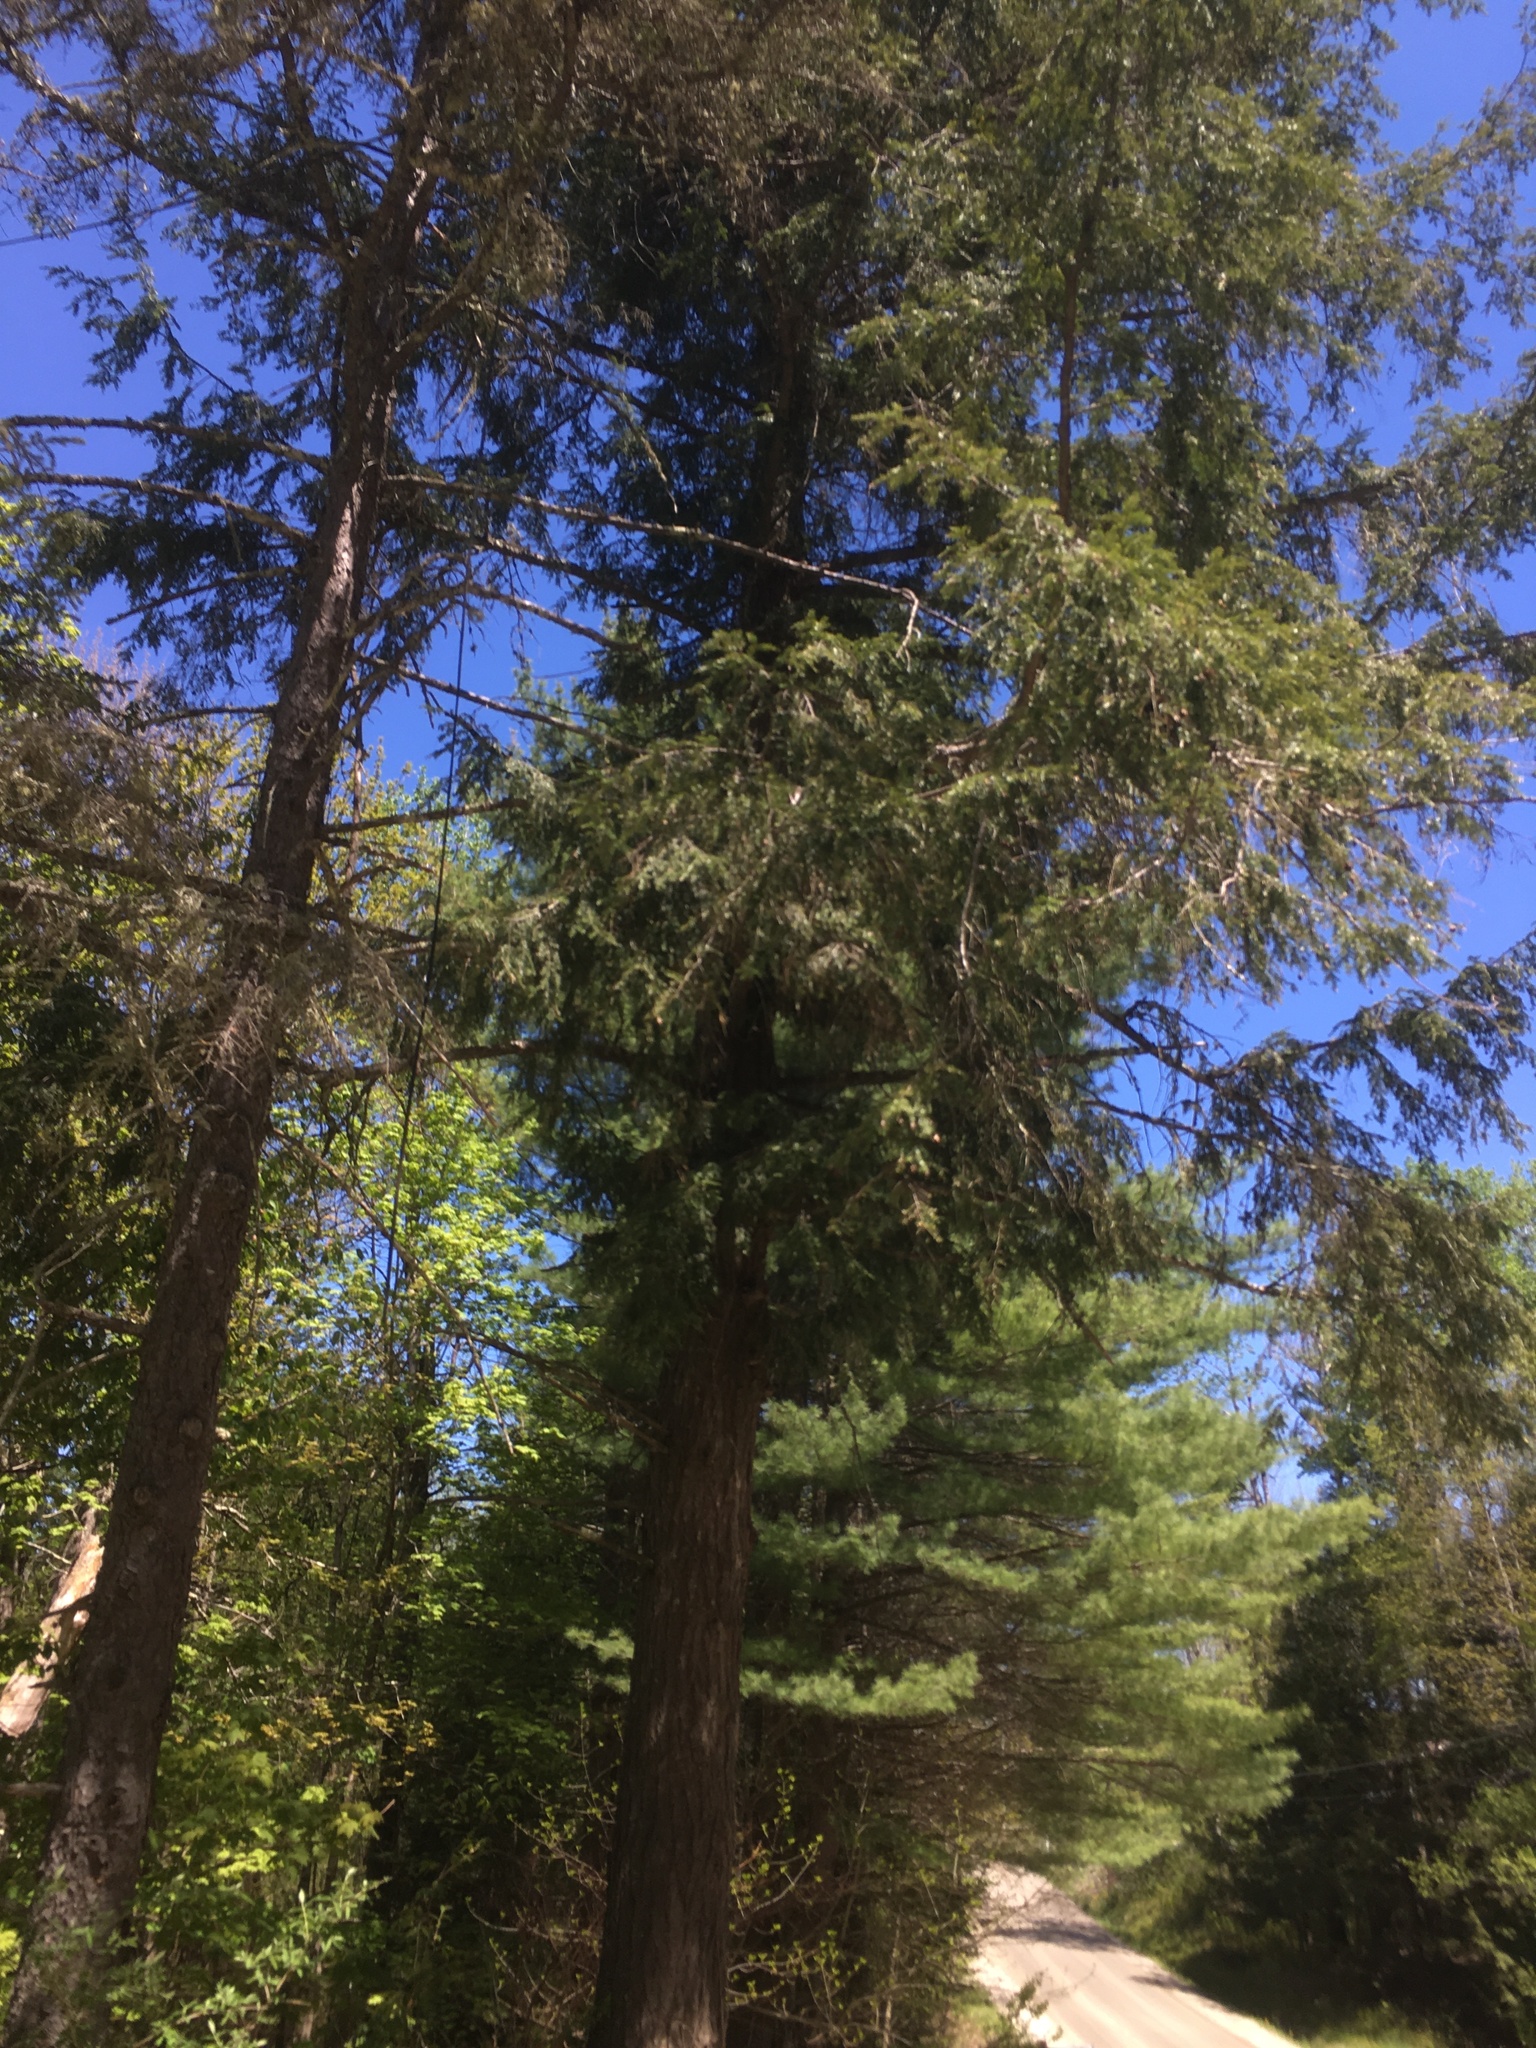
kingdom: Plantae
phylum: Tracheophyta
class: Pinopsida
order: Pinales
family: Pinaceae
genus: Tsuga
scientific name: Tsuga canadensis
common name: Eastern hemlock
